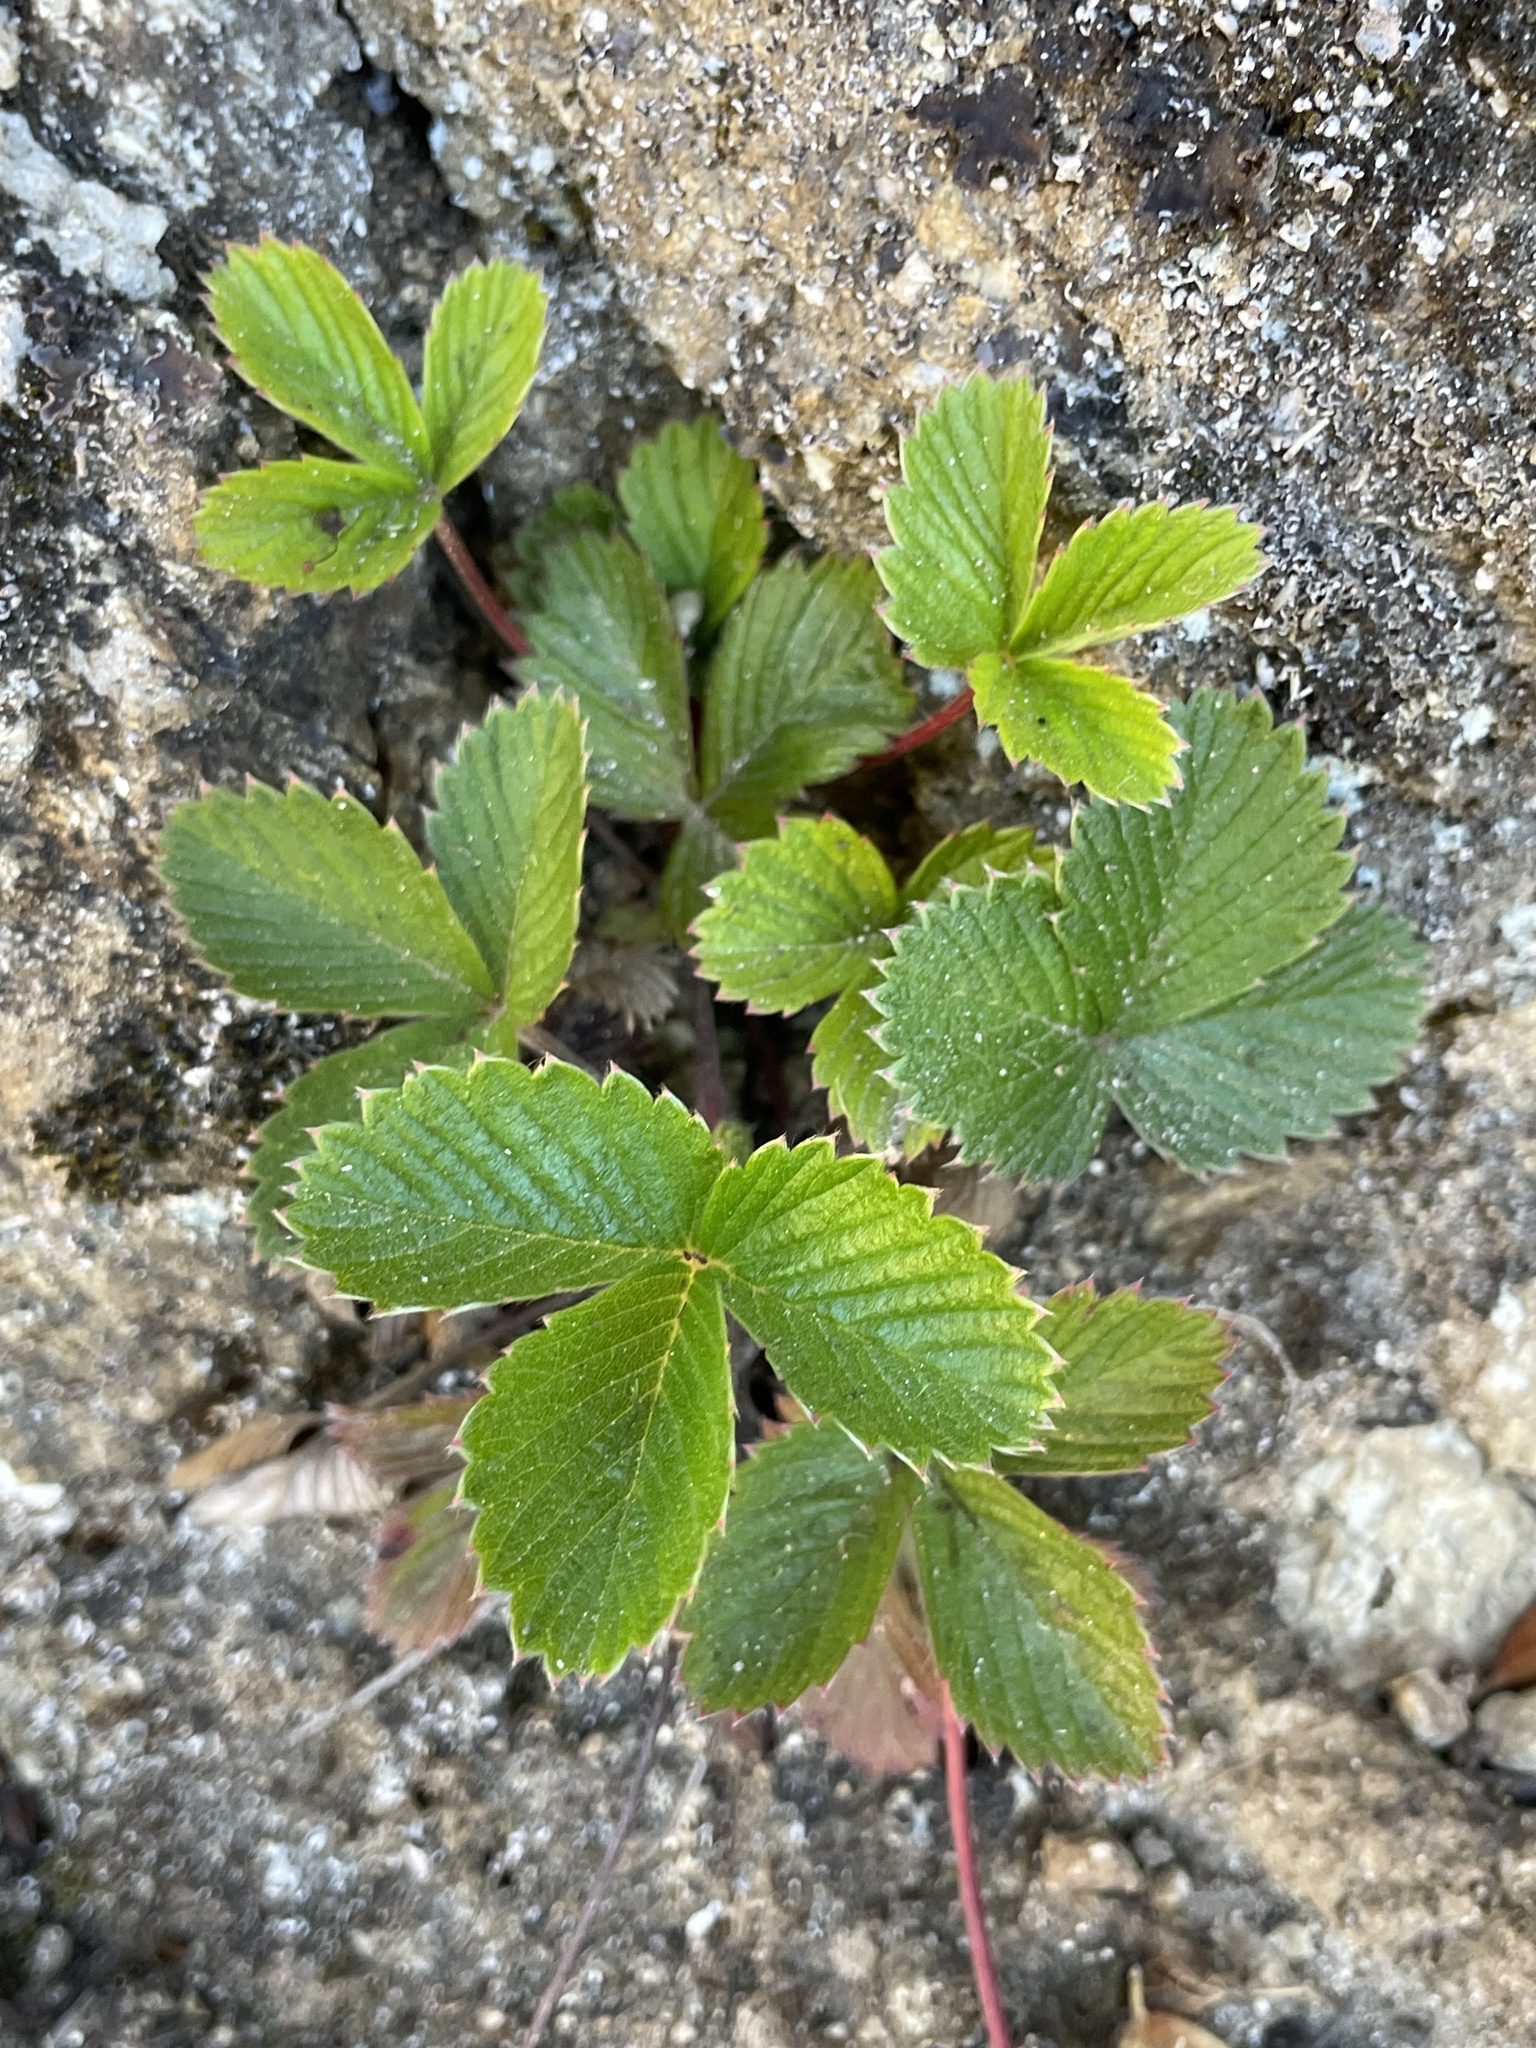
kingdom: Plantae
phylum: Tracheophyta
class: Magnoliopsida
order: Rosales
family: Rosaceae
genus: Fragaria
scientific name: Fragaria vesca
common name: Wild strawberry
